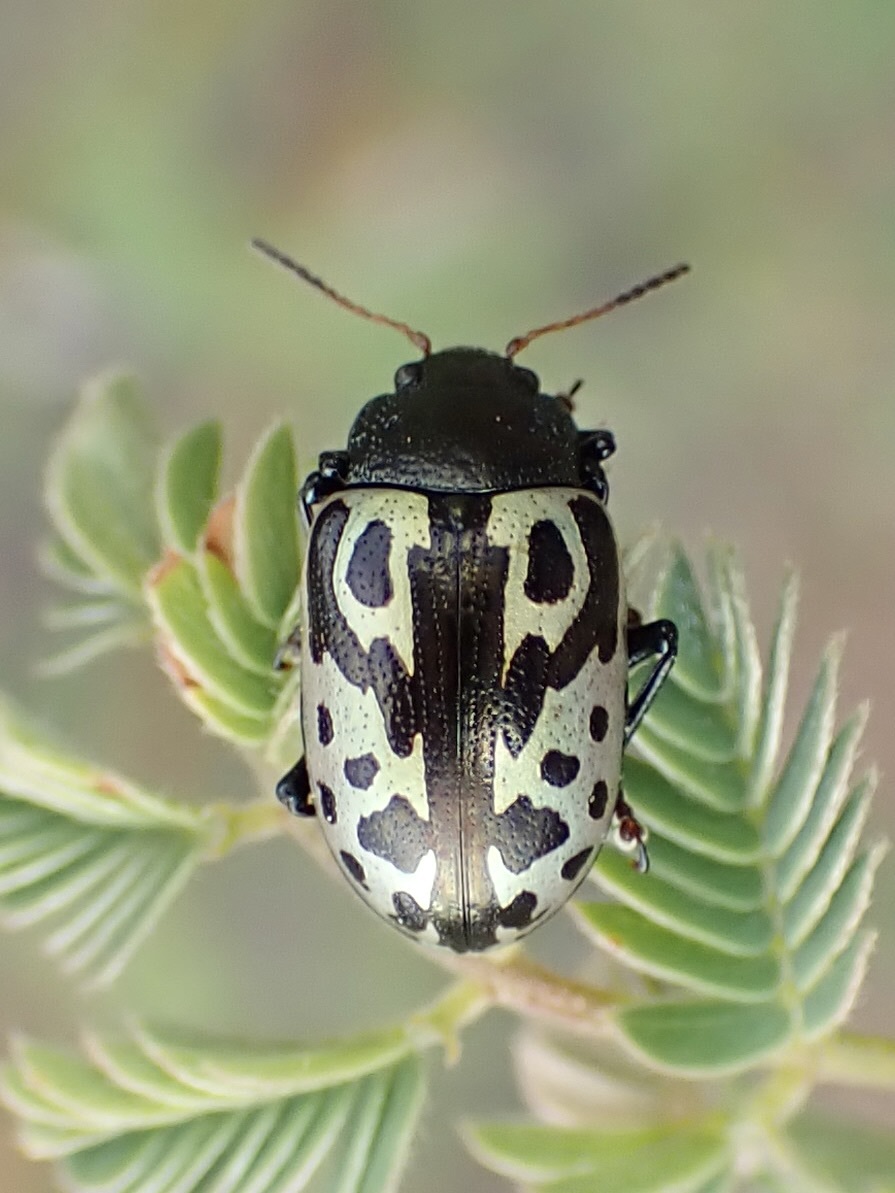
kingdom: Animalia
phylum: Arthropoda
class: Insecta
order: Coleoptera
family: Chrysomelidae
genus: Calligrapha
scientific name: Calligrapha
